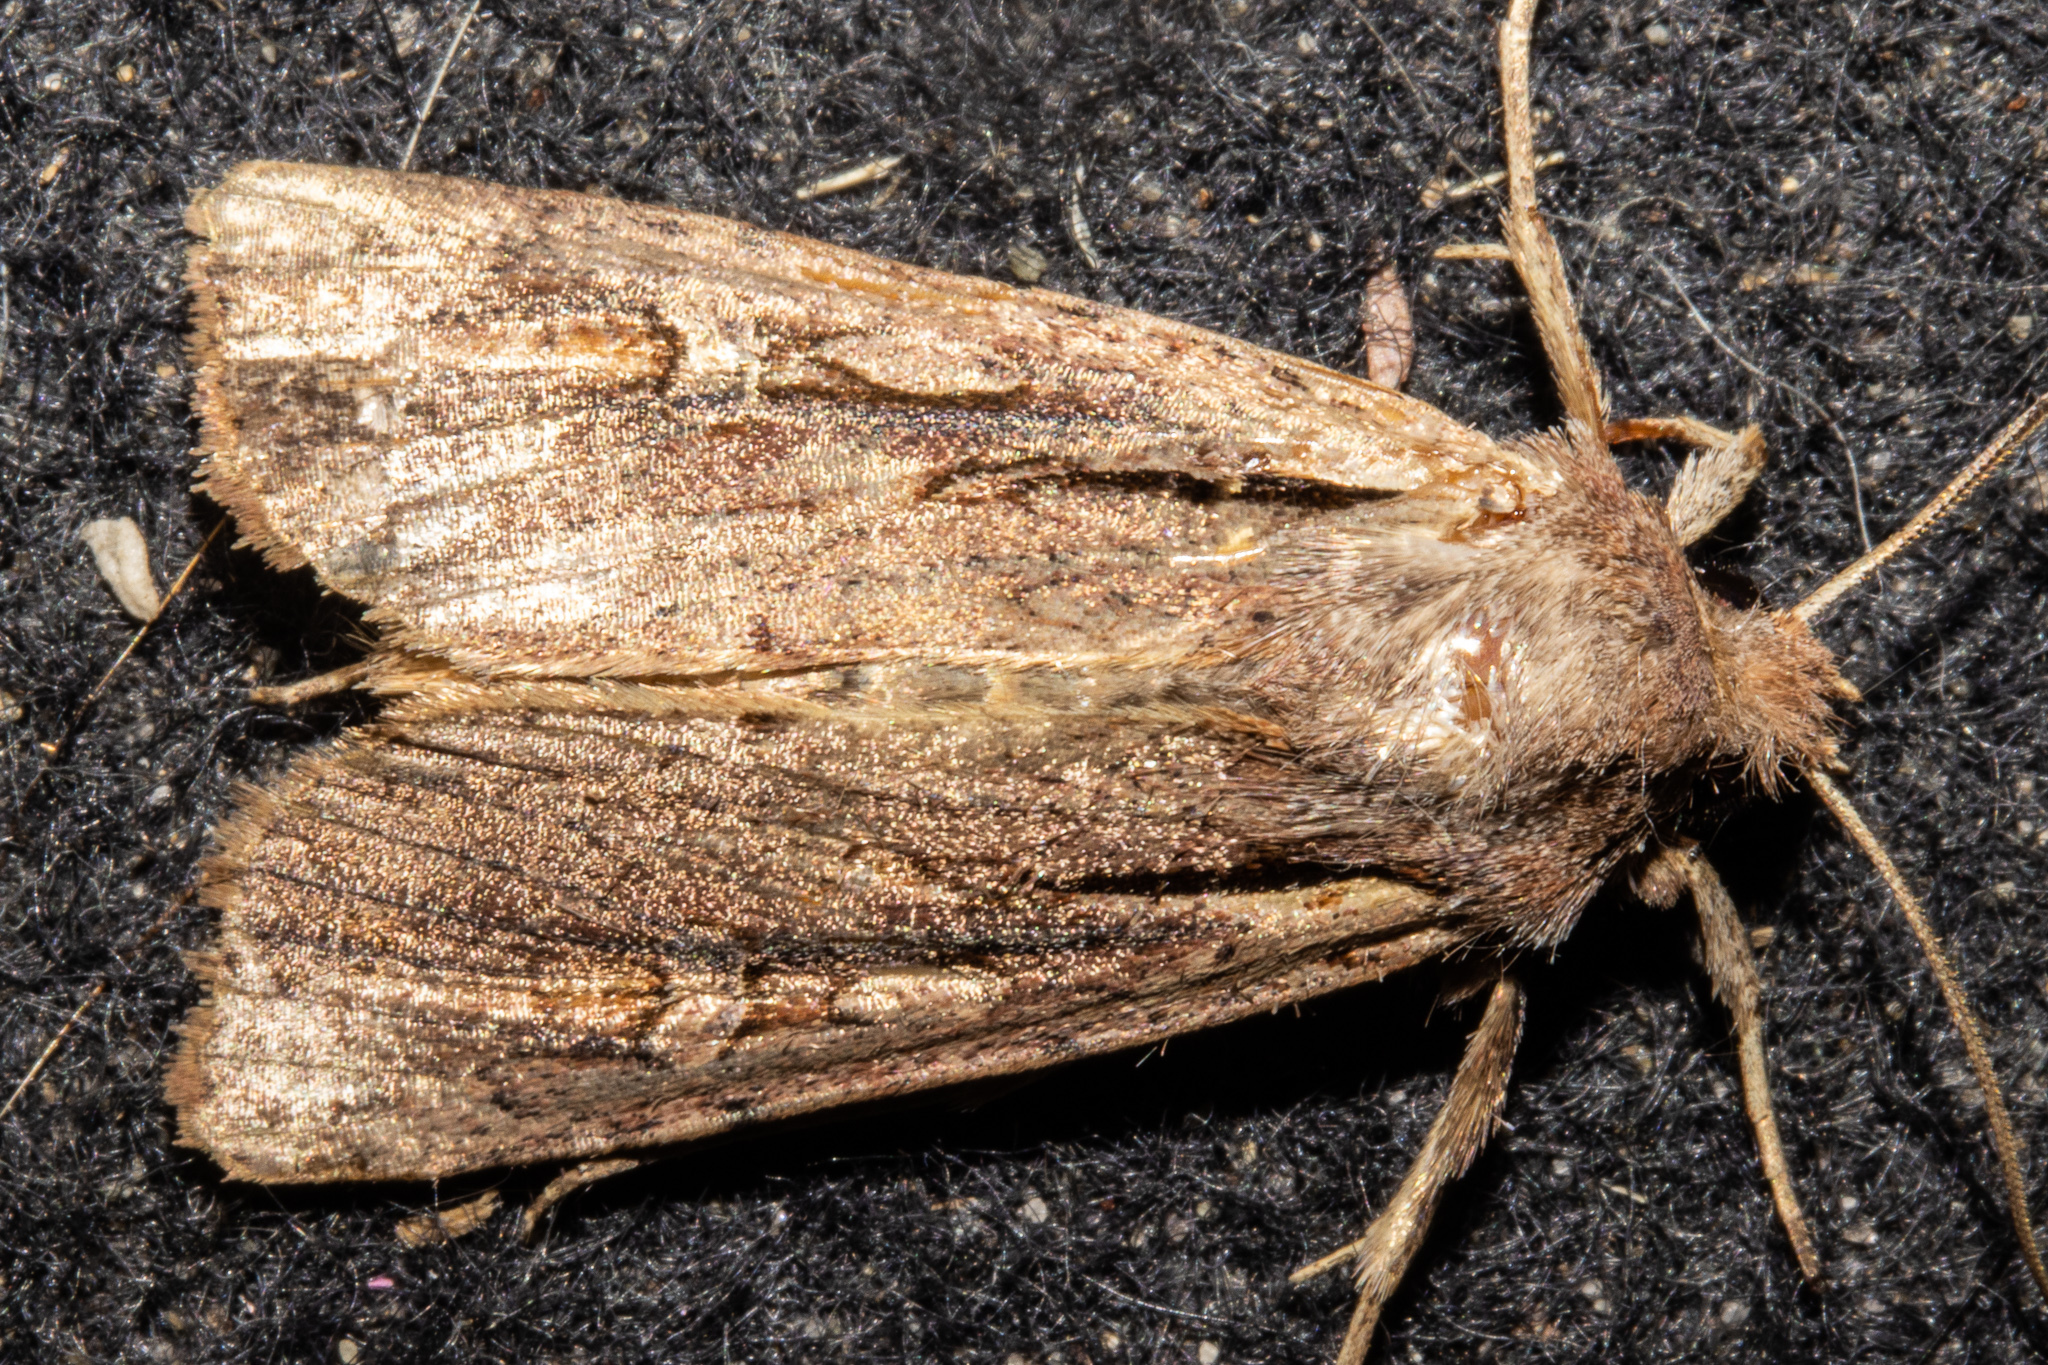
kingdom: Animalia
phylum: Arthropoda
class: Insecta
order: Lepidoptera
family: Noctuidae
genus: Ichneutica
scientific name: Ichneutica atristriga
